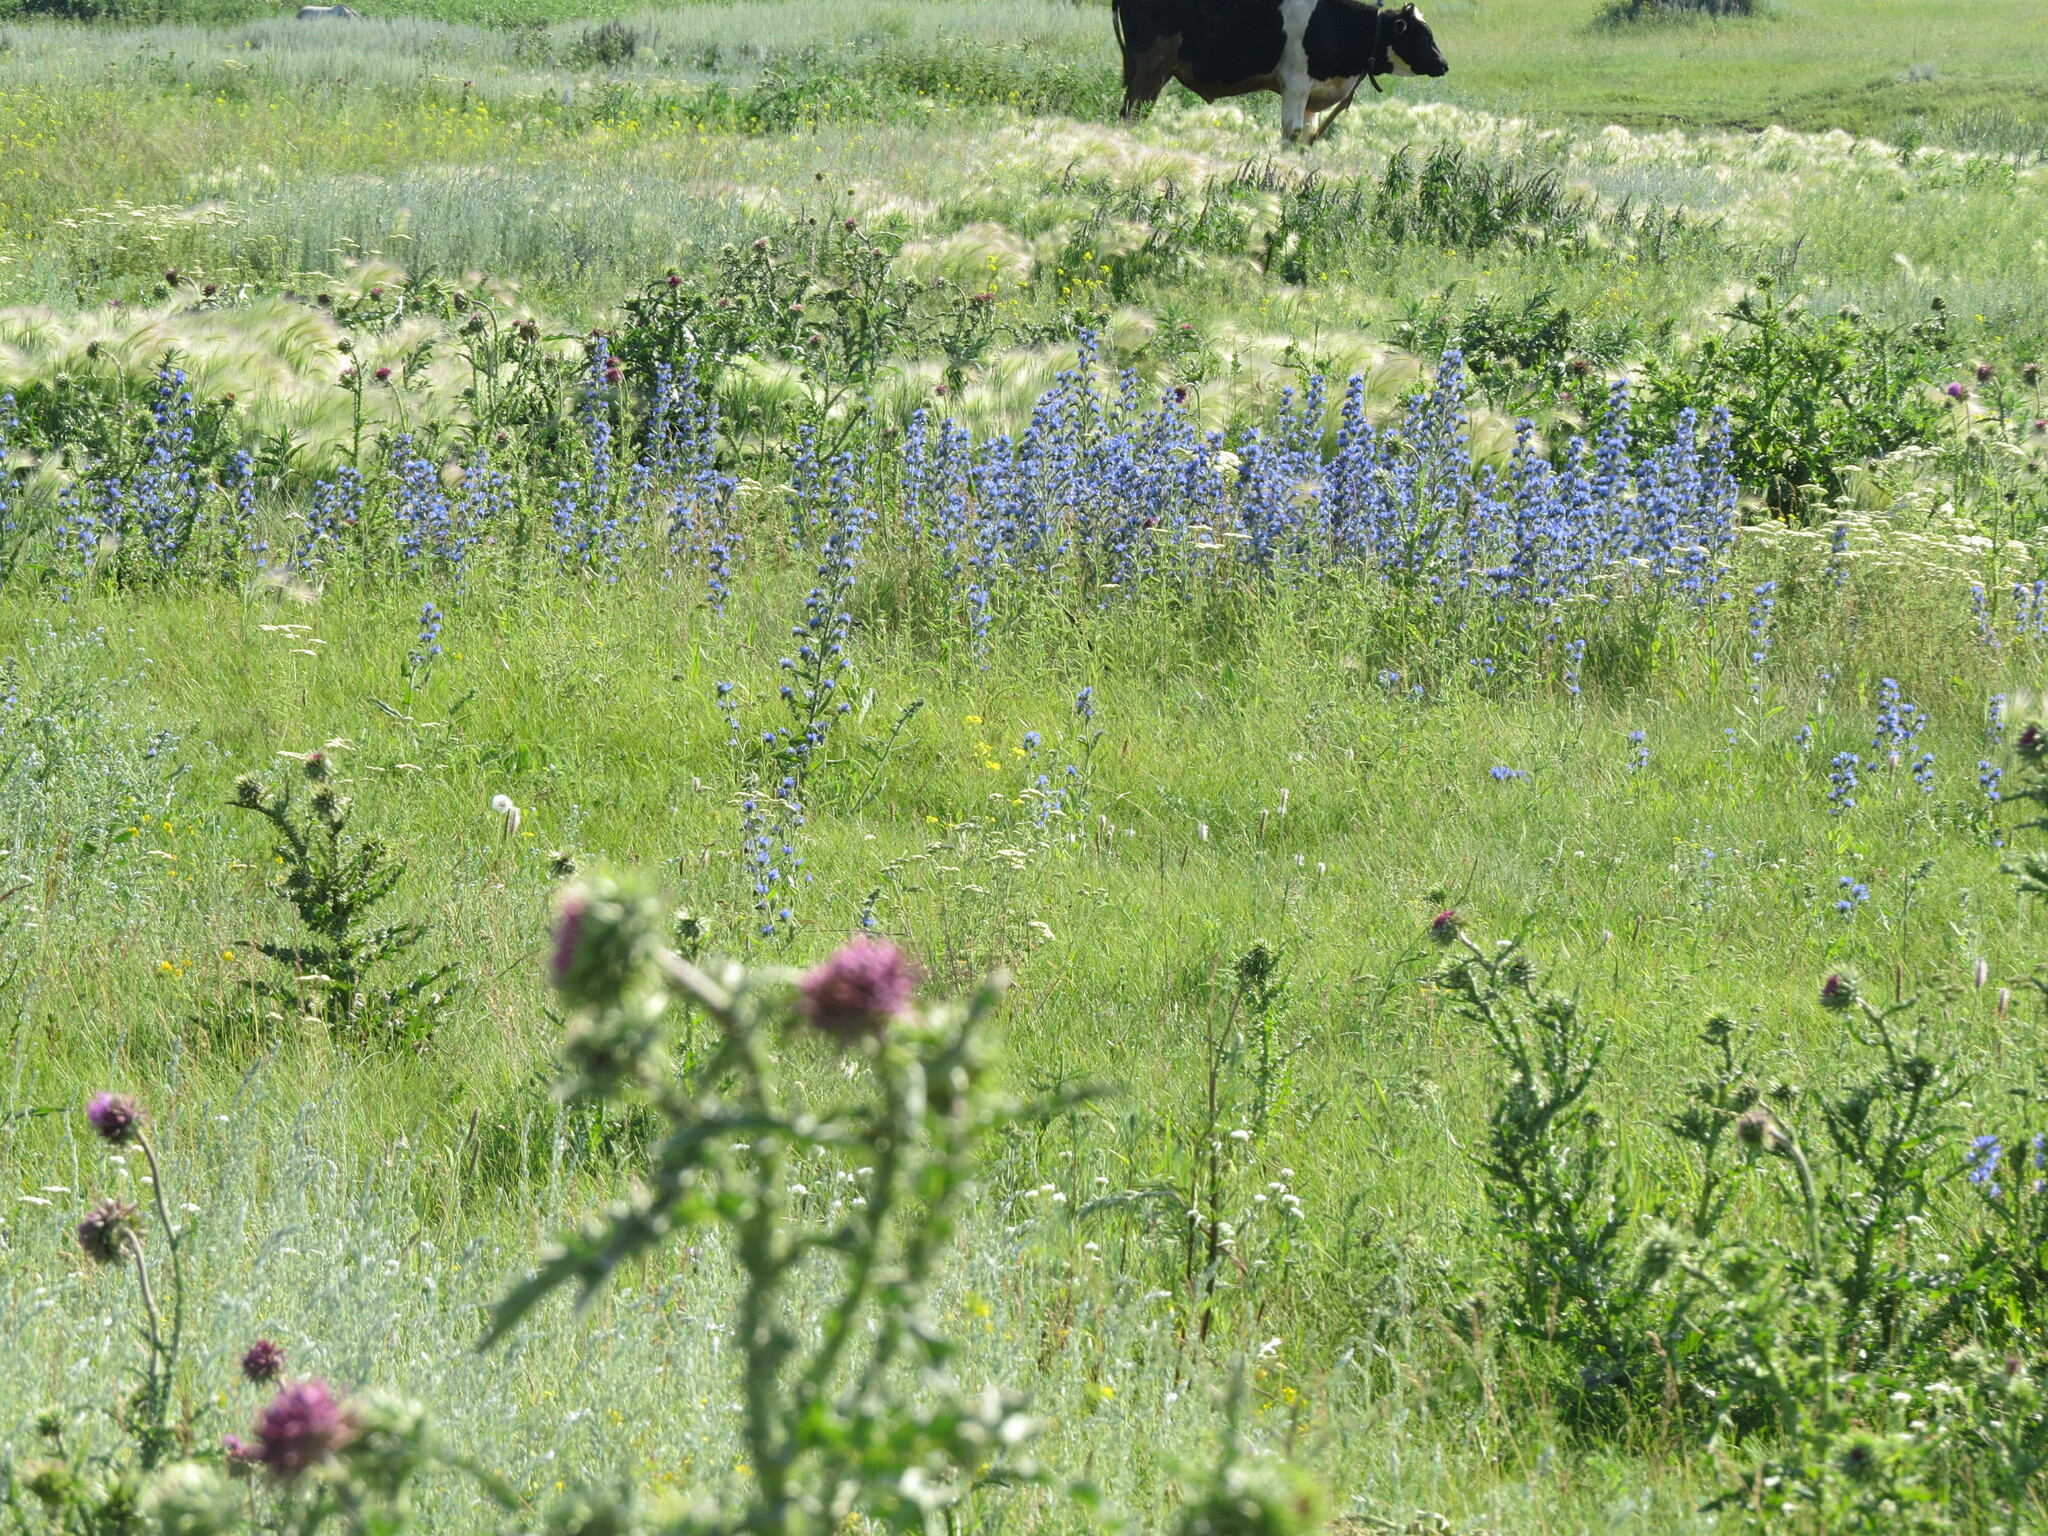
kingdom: Plantae
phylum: Tracheophyta
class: Magnoliopsida
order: Asterales
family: Asteraceae
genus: Carduus
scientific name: Carduus nutans
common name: Musk thistle
